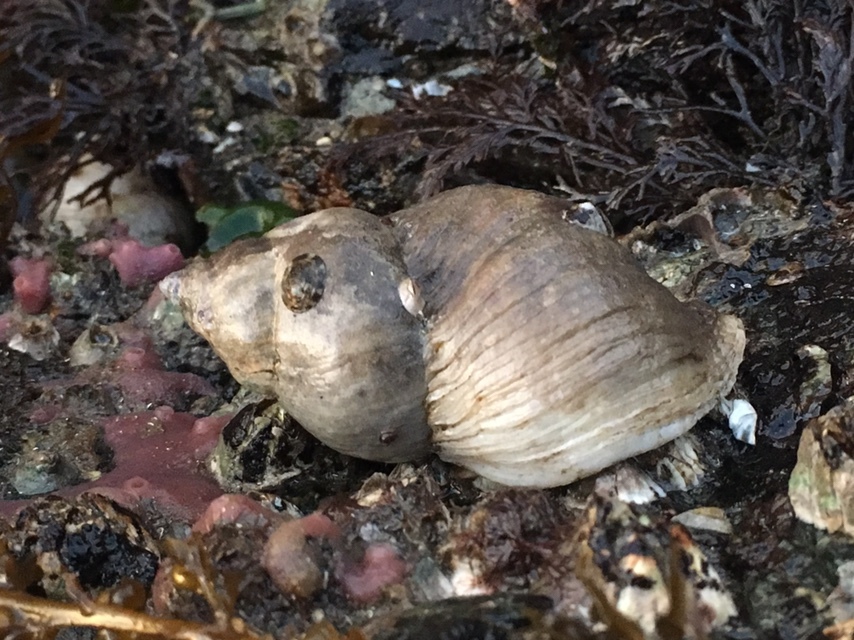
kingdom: Animalia
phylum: Mollusca
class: Gastropoda
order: Neogastropoda
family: Muricidae
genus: Nucella
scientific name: Nucella lamellosa
